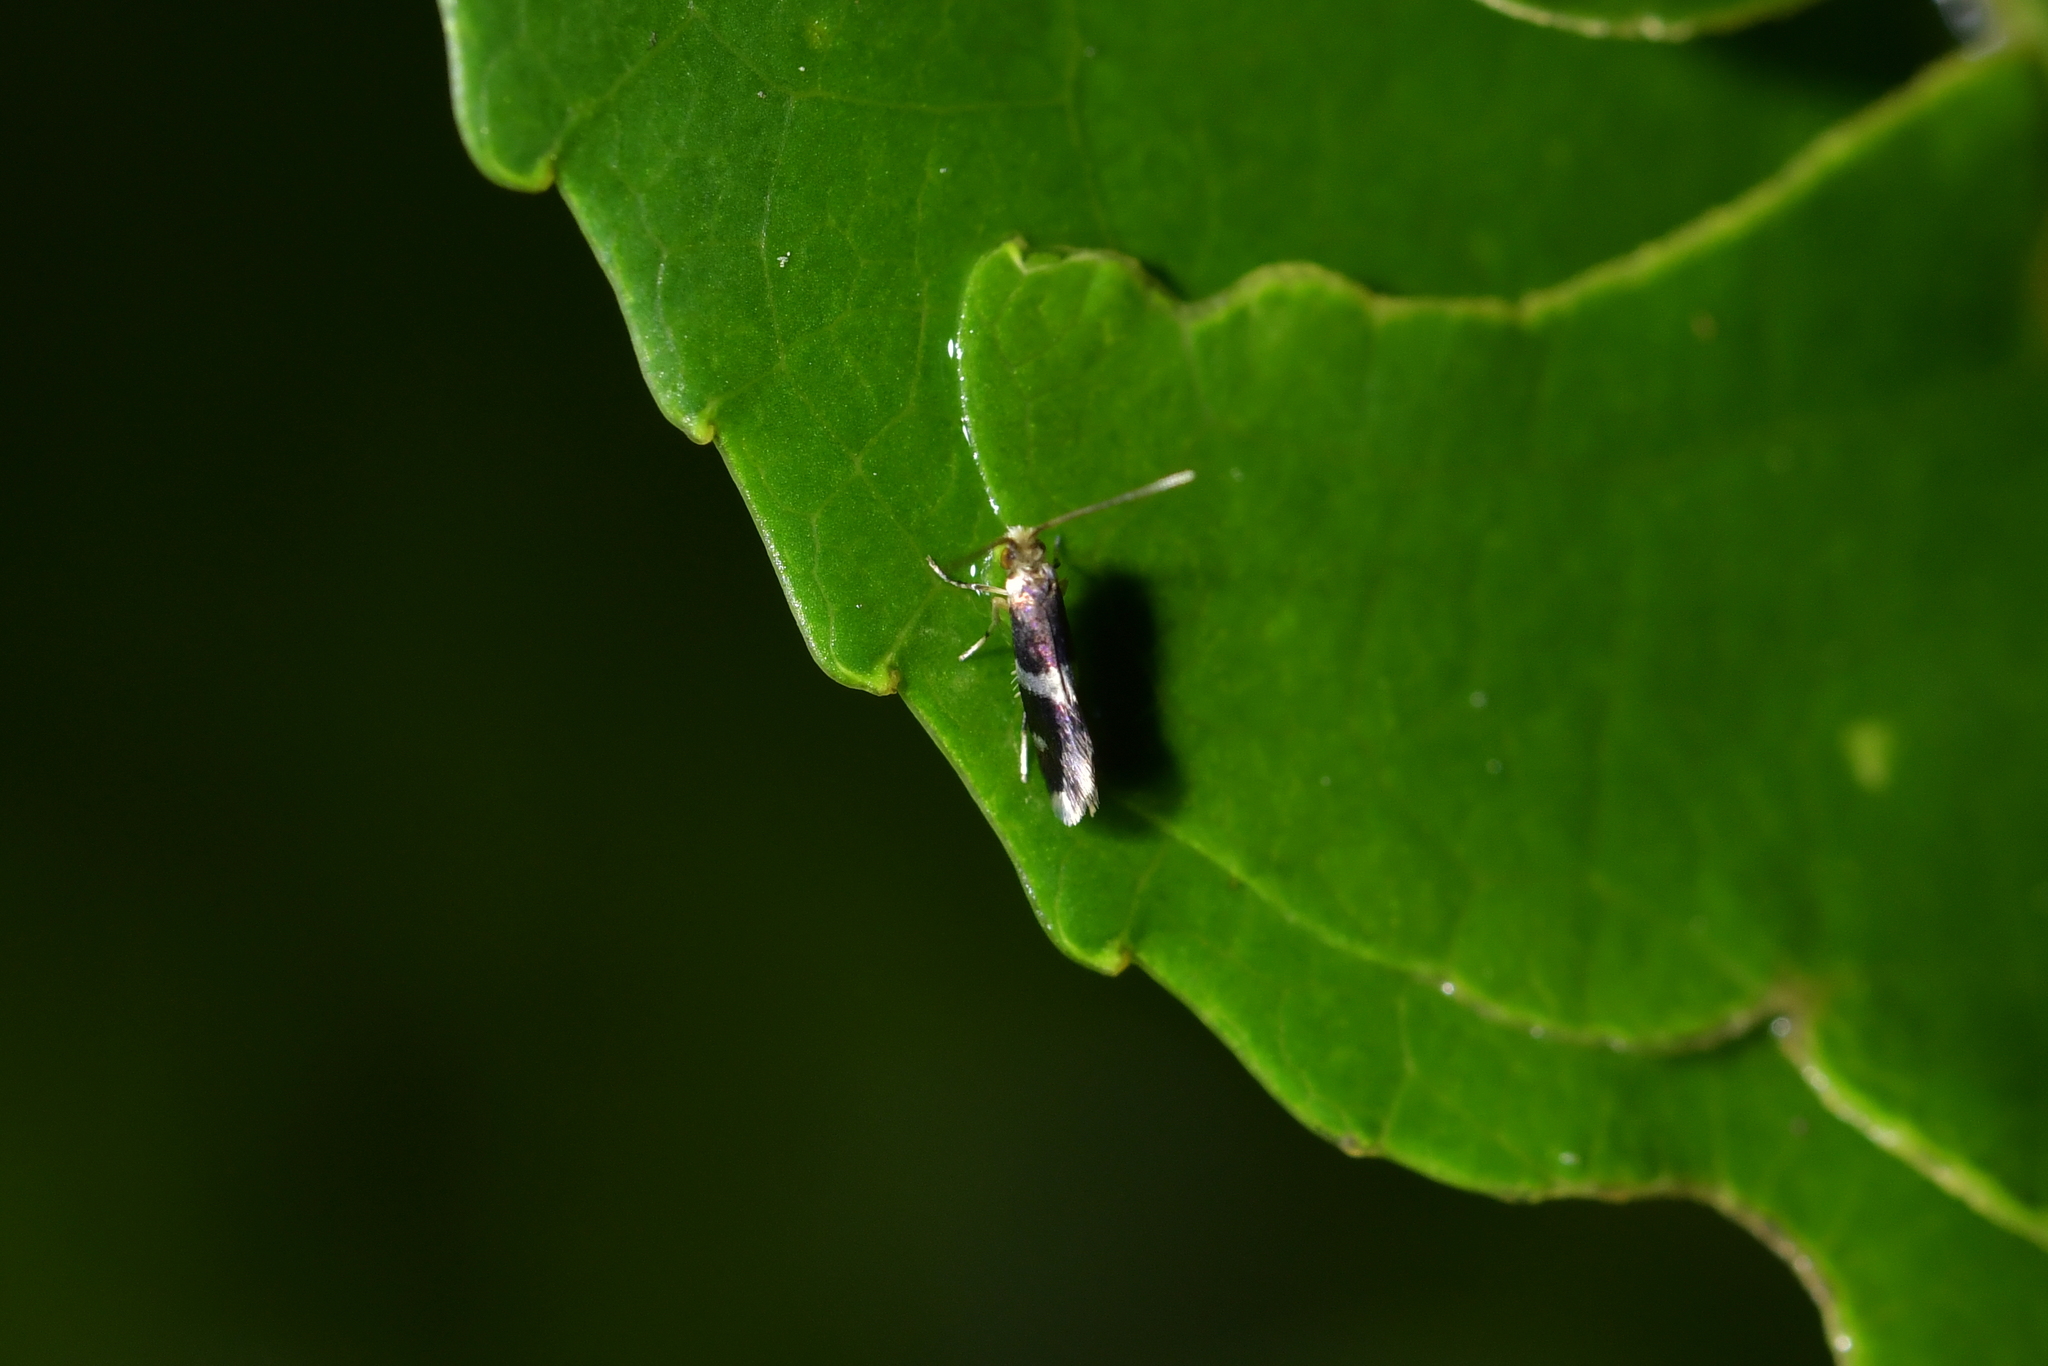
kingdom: Animalia
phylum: Arthropoda
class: Insecta
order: Lepidoptera
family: Micropterigidae
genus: Zealandopterix
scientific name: Zealandopterix zonodoxa
